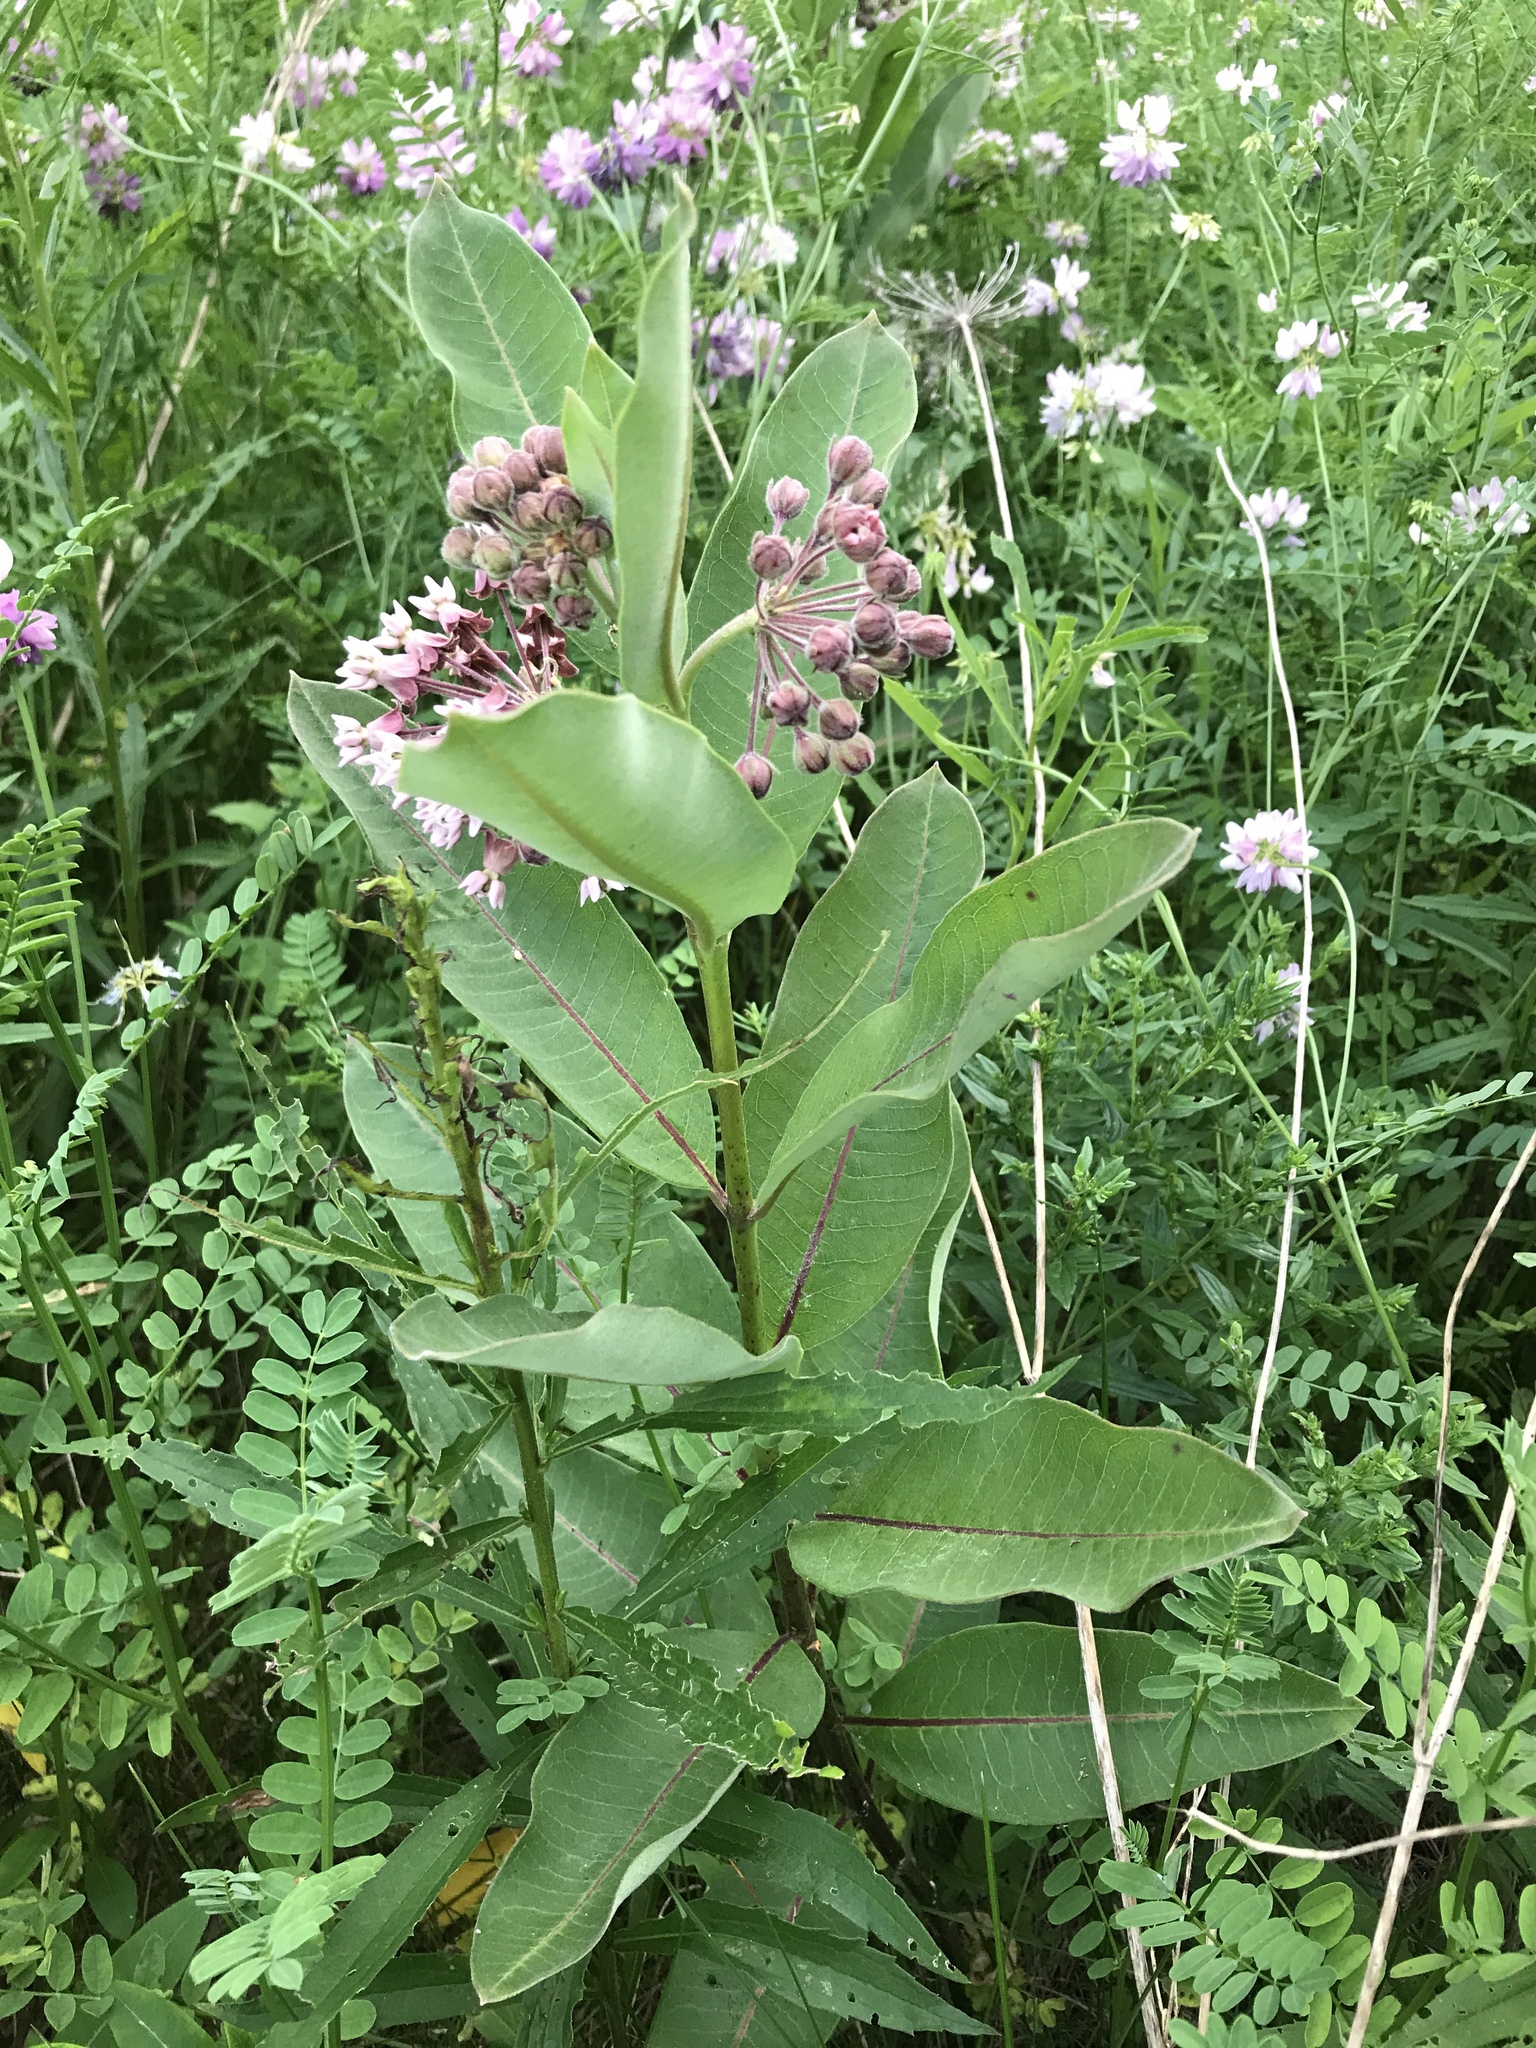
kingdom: Plantae
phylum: Tracheophyta
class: Magnoliopsida
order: Gentianales
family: Apocynaceae
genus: Asclepias
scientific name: Asclepias syriaca
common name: Common milkweed
